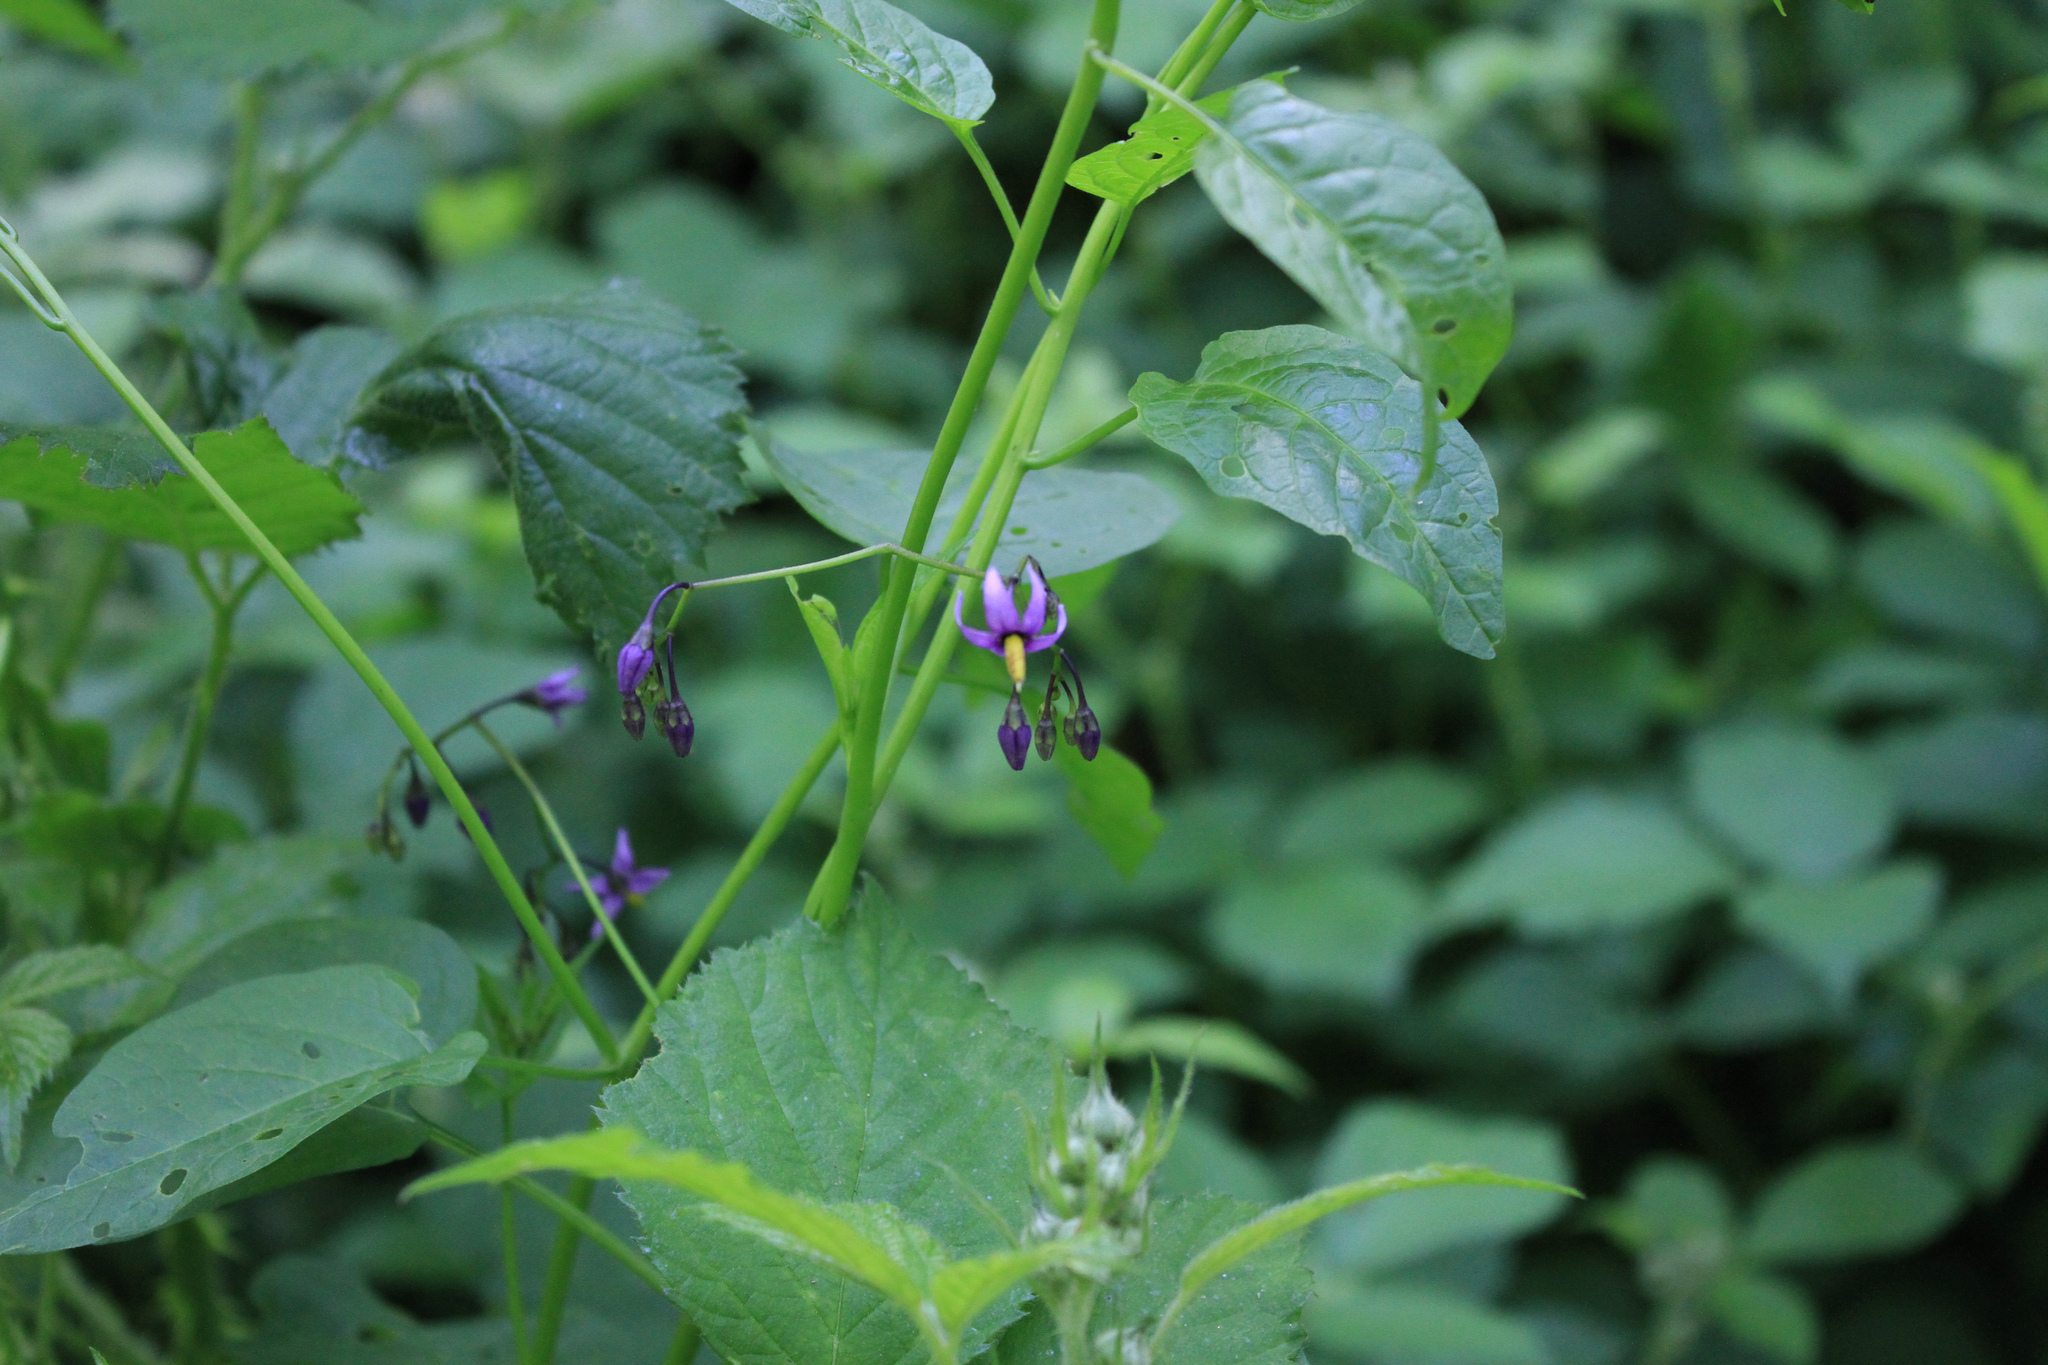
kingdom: Plantae
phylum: Tracheophyta
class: Magnoliopsida
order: Solanales
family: Solanaceae
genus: Solanum
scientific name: Solanum dulcamara
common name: Climbing nightshade
